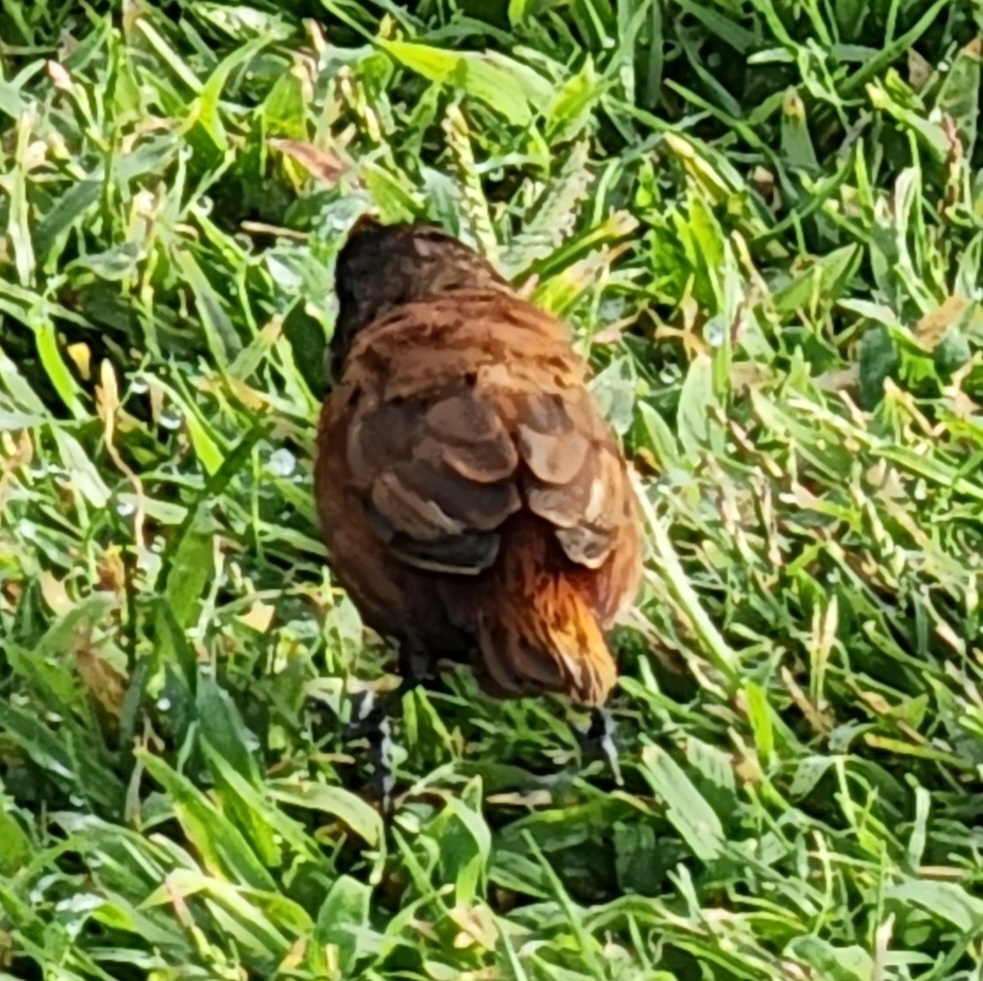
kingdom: Animalia
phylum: Chordata
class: Aves
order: Passeriformes
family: Estrildidae
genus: Lonchura
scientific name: Lonchura atricapilla
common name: Chestnut munia
